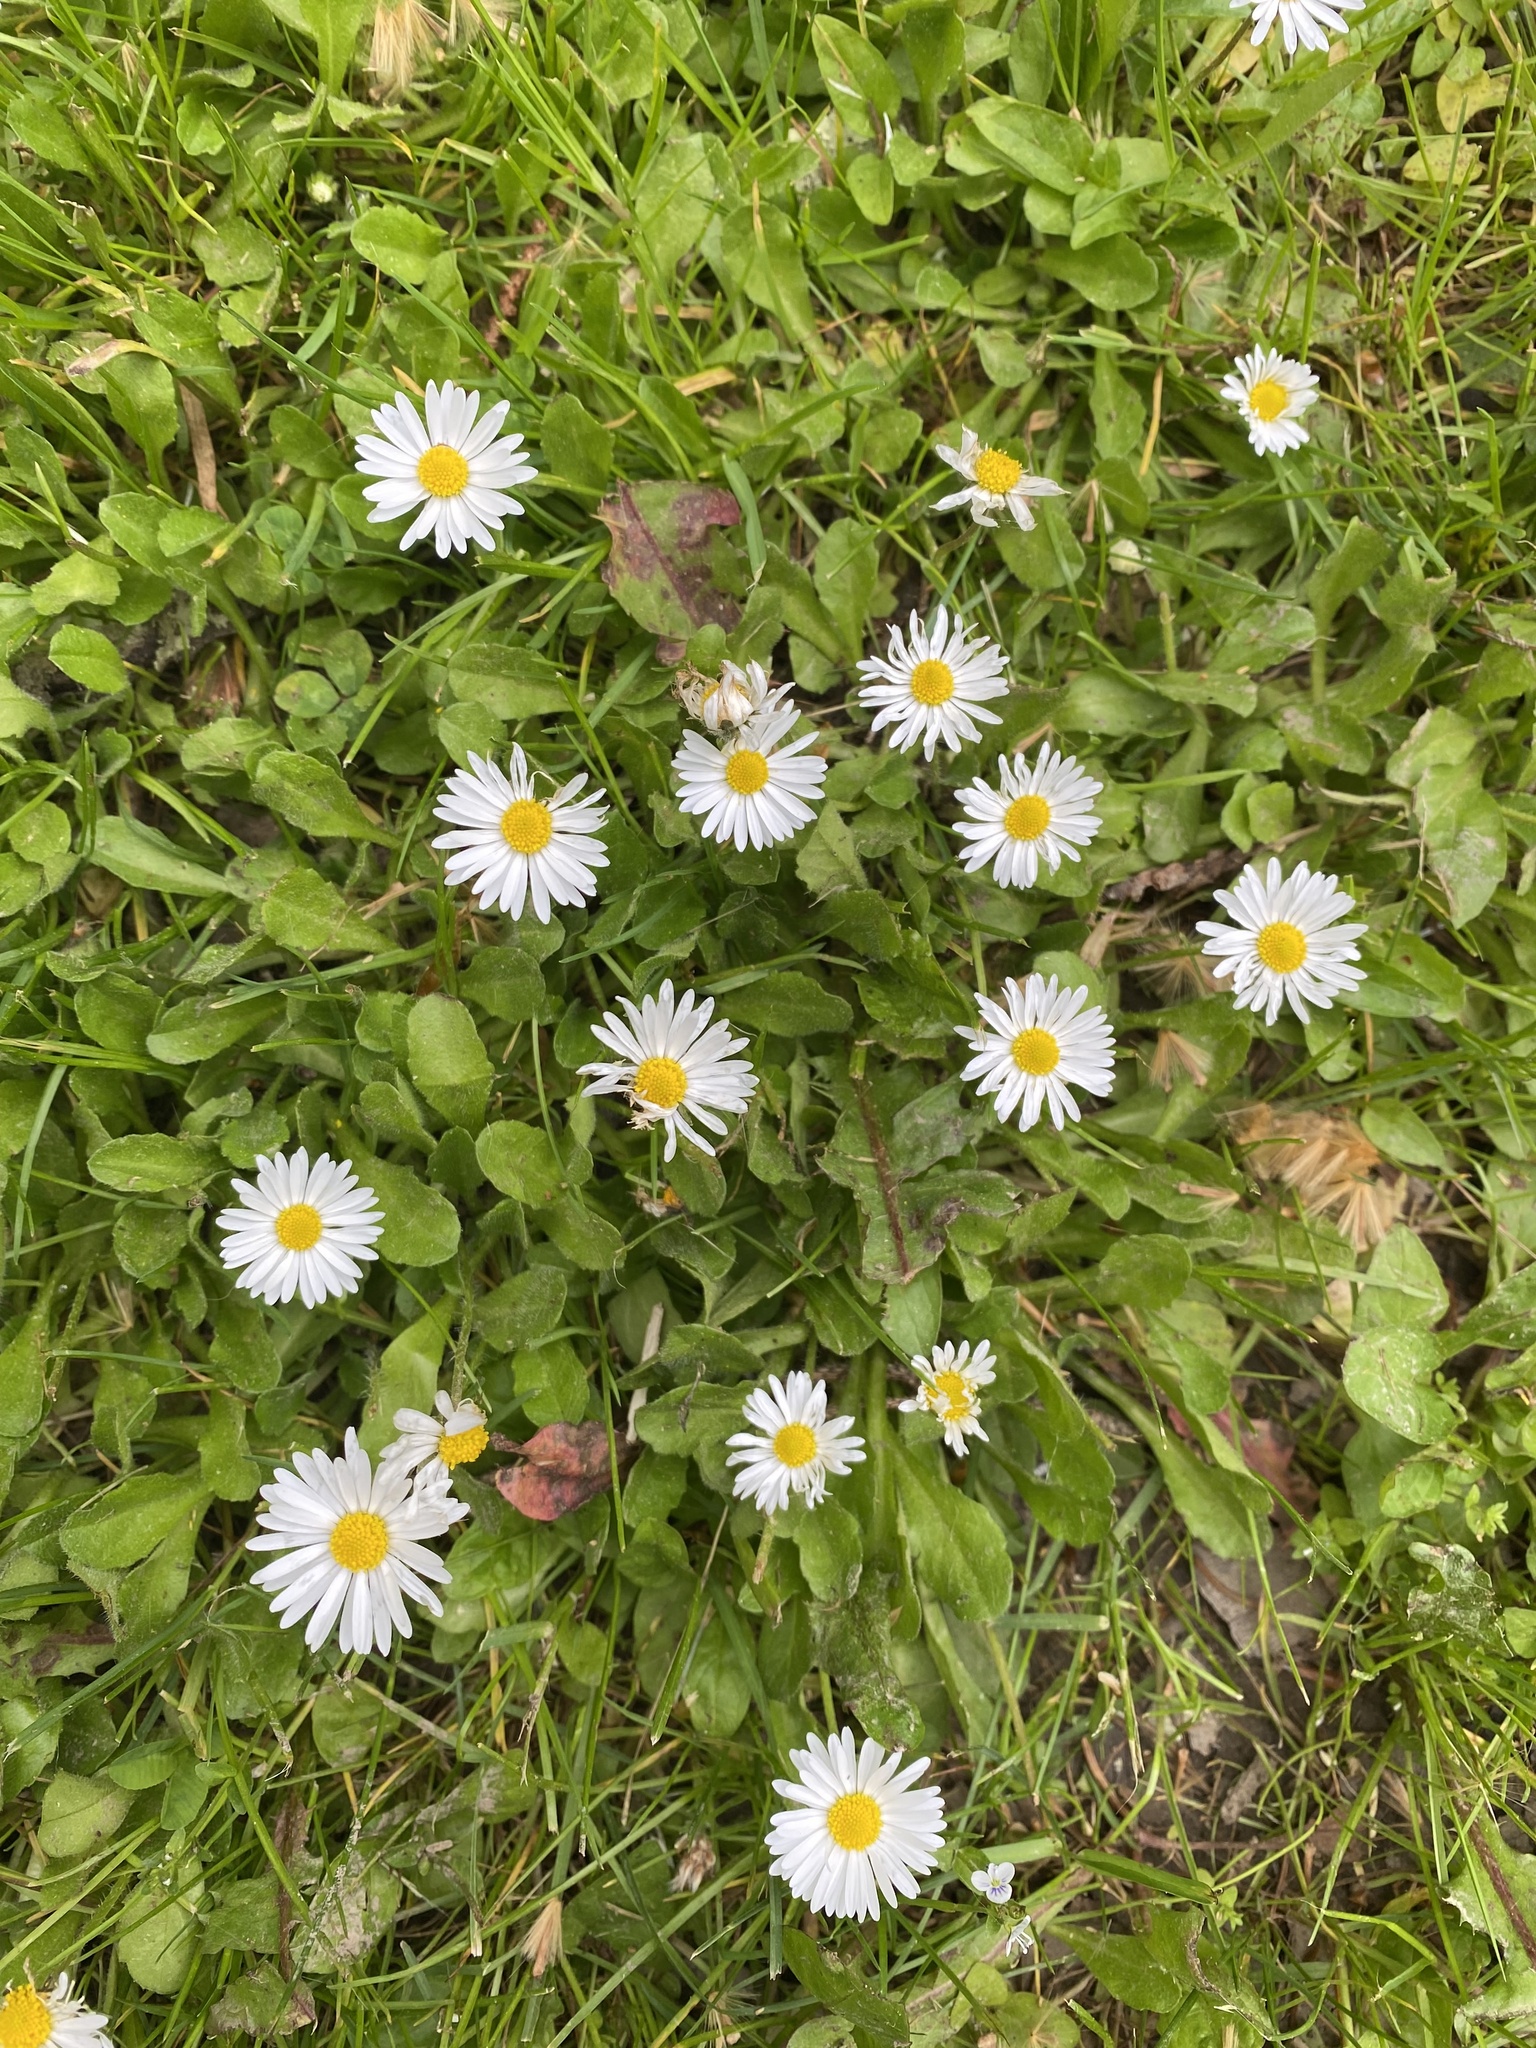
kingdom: Plantae
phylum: Tracheophyta
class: Magnoliopsida
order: Asterales
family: Asteraceae
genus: Bellis
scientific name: Bellis perennis
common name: Lawndaisy
